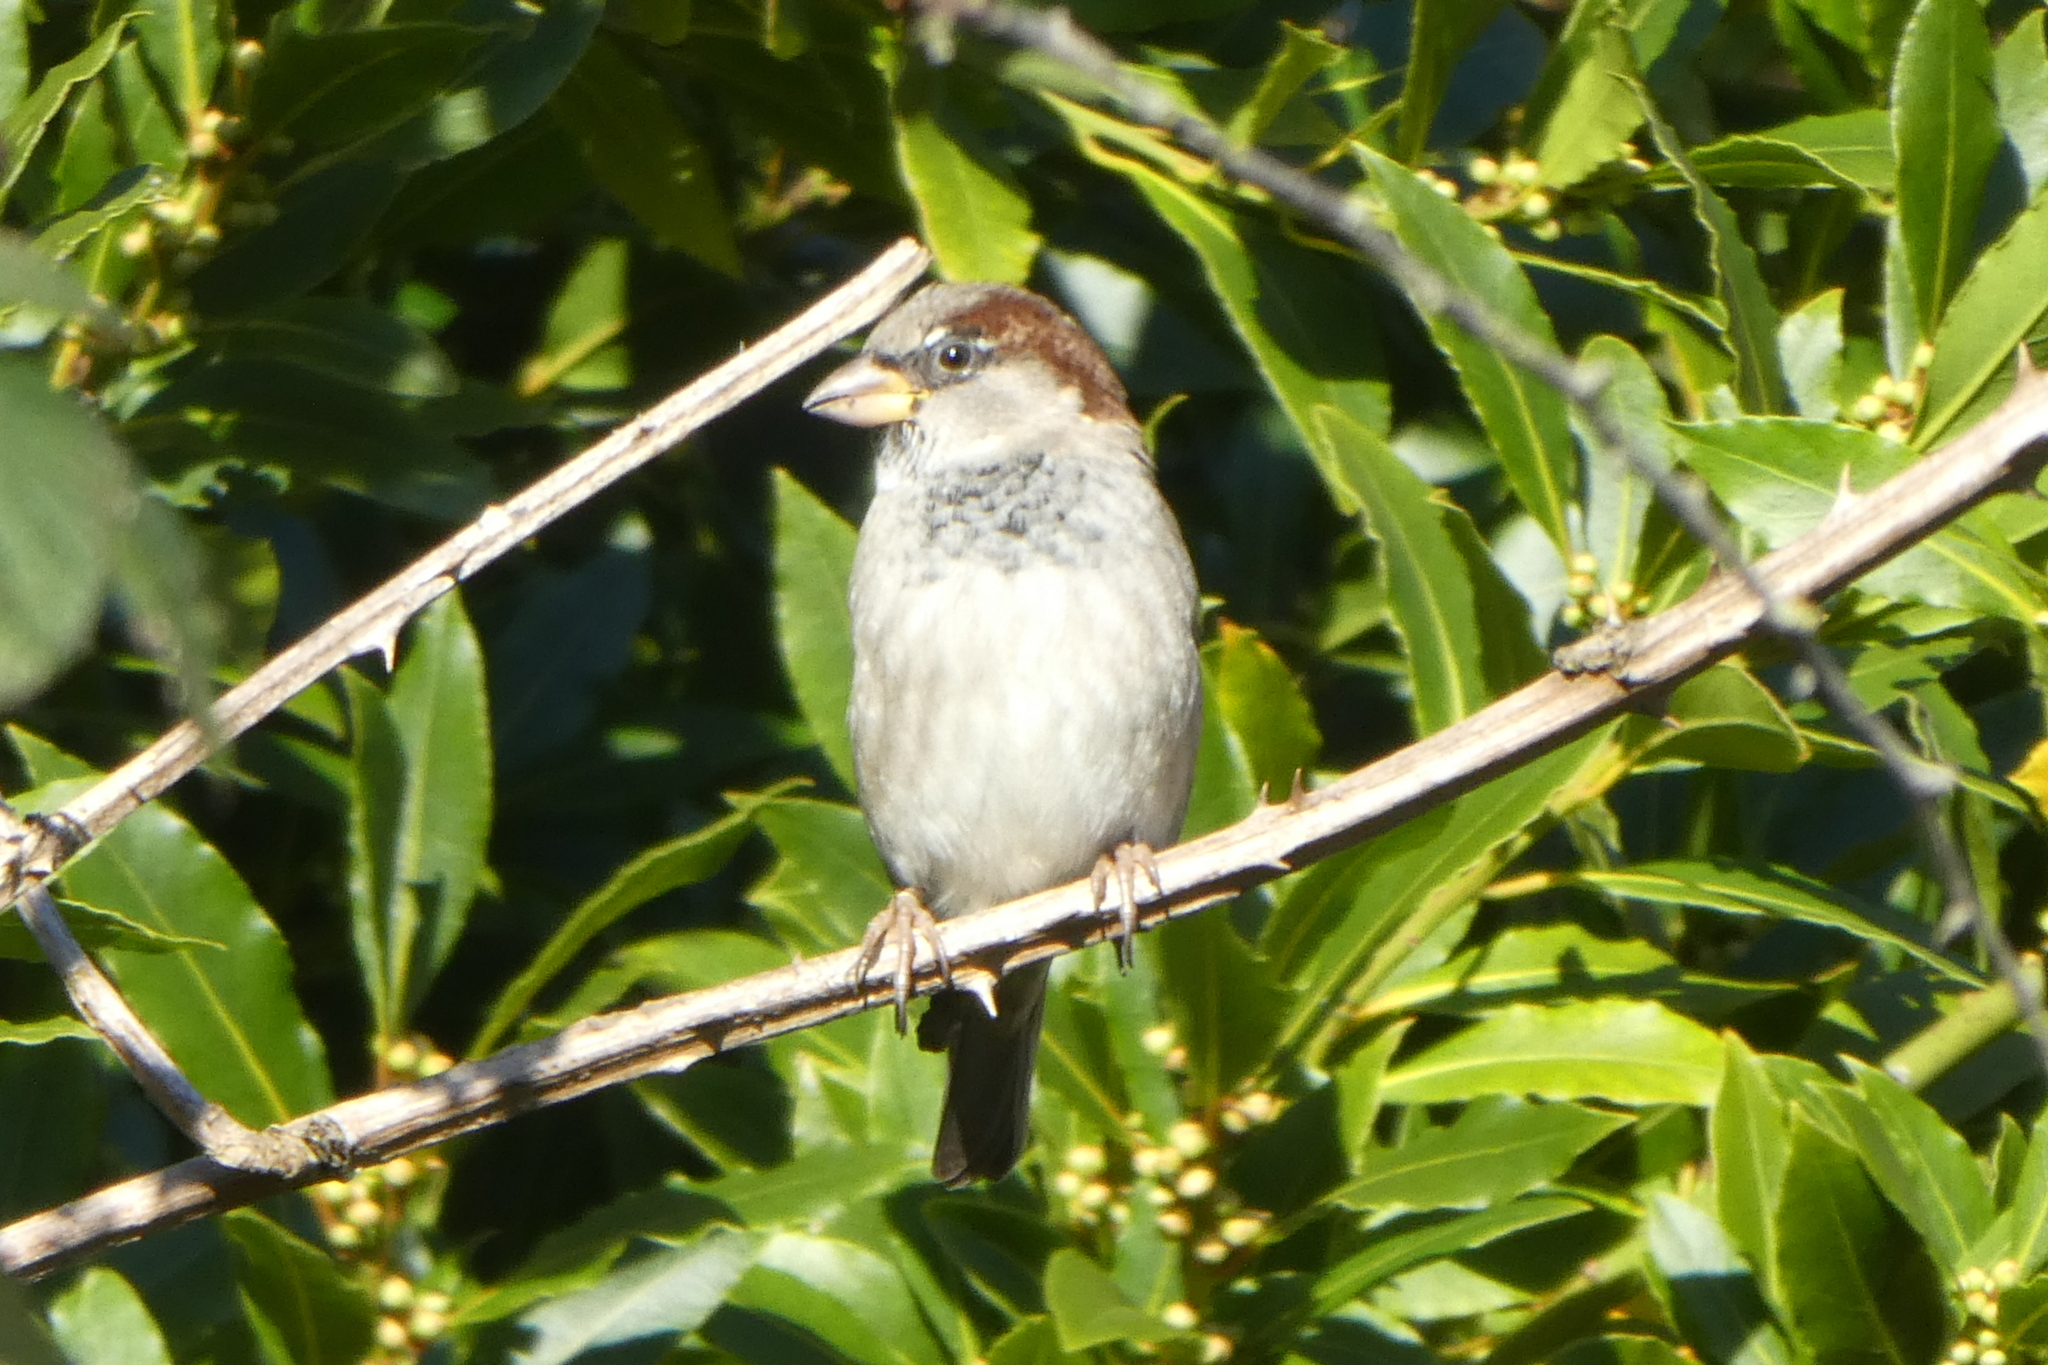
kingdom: Animalia
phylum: Chordata
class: Aves
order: Passeriformes
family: Passeridae
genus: Passer
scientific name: Passer domesticus
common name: House sparrow
